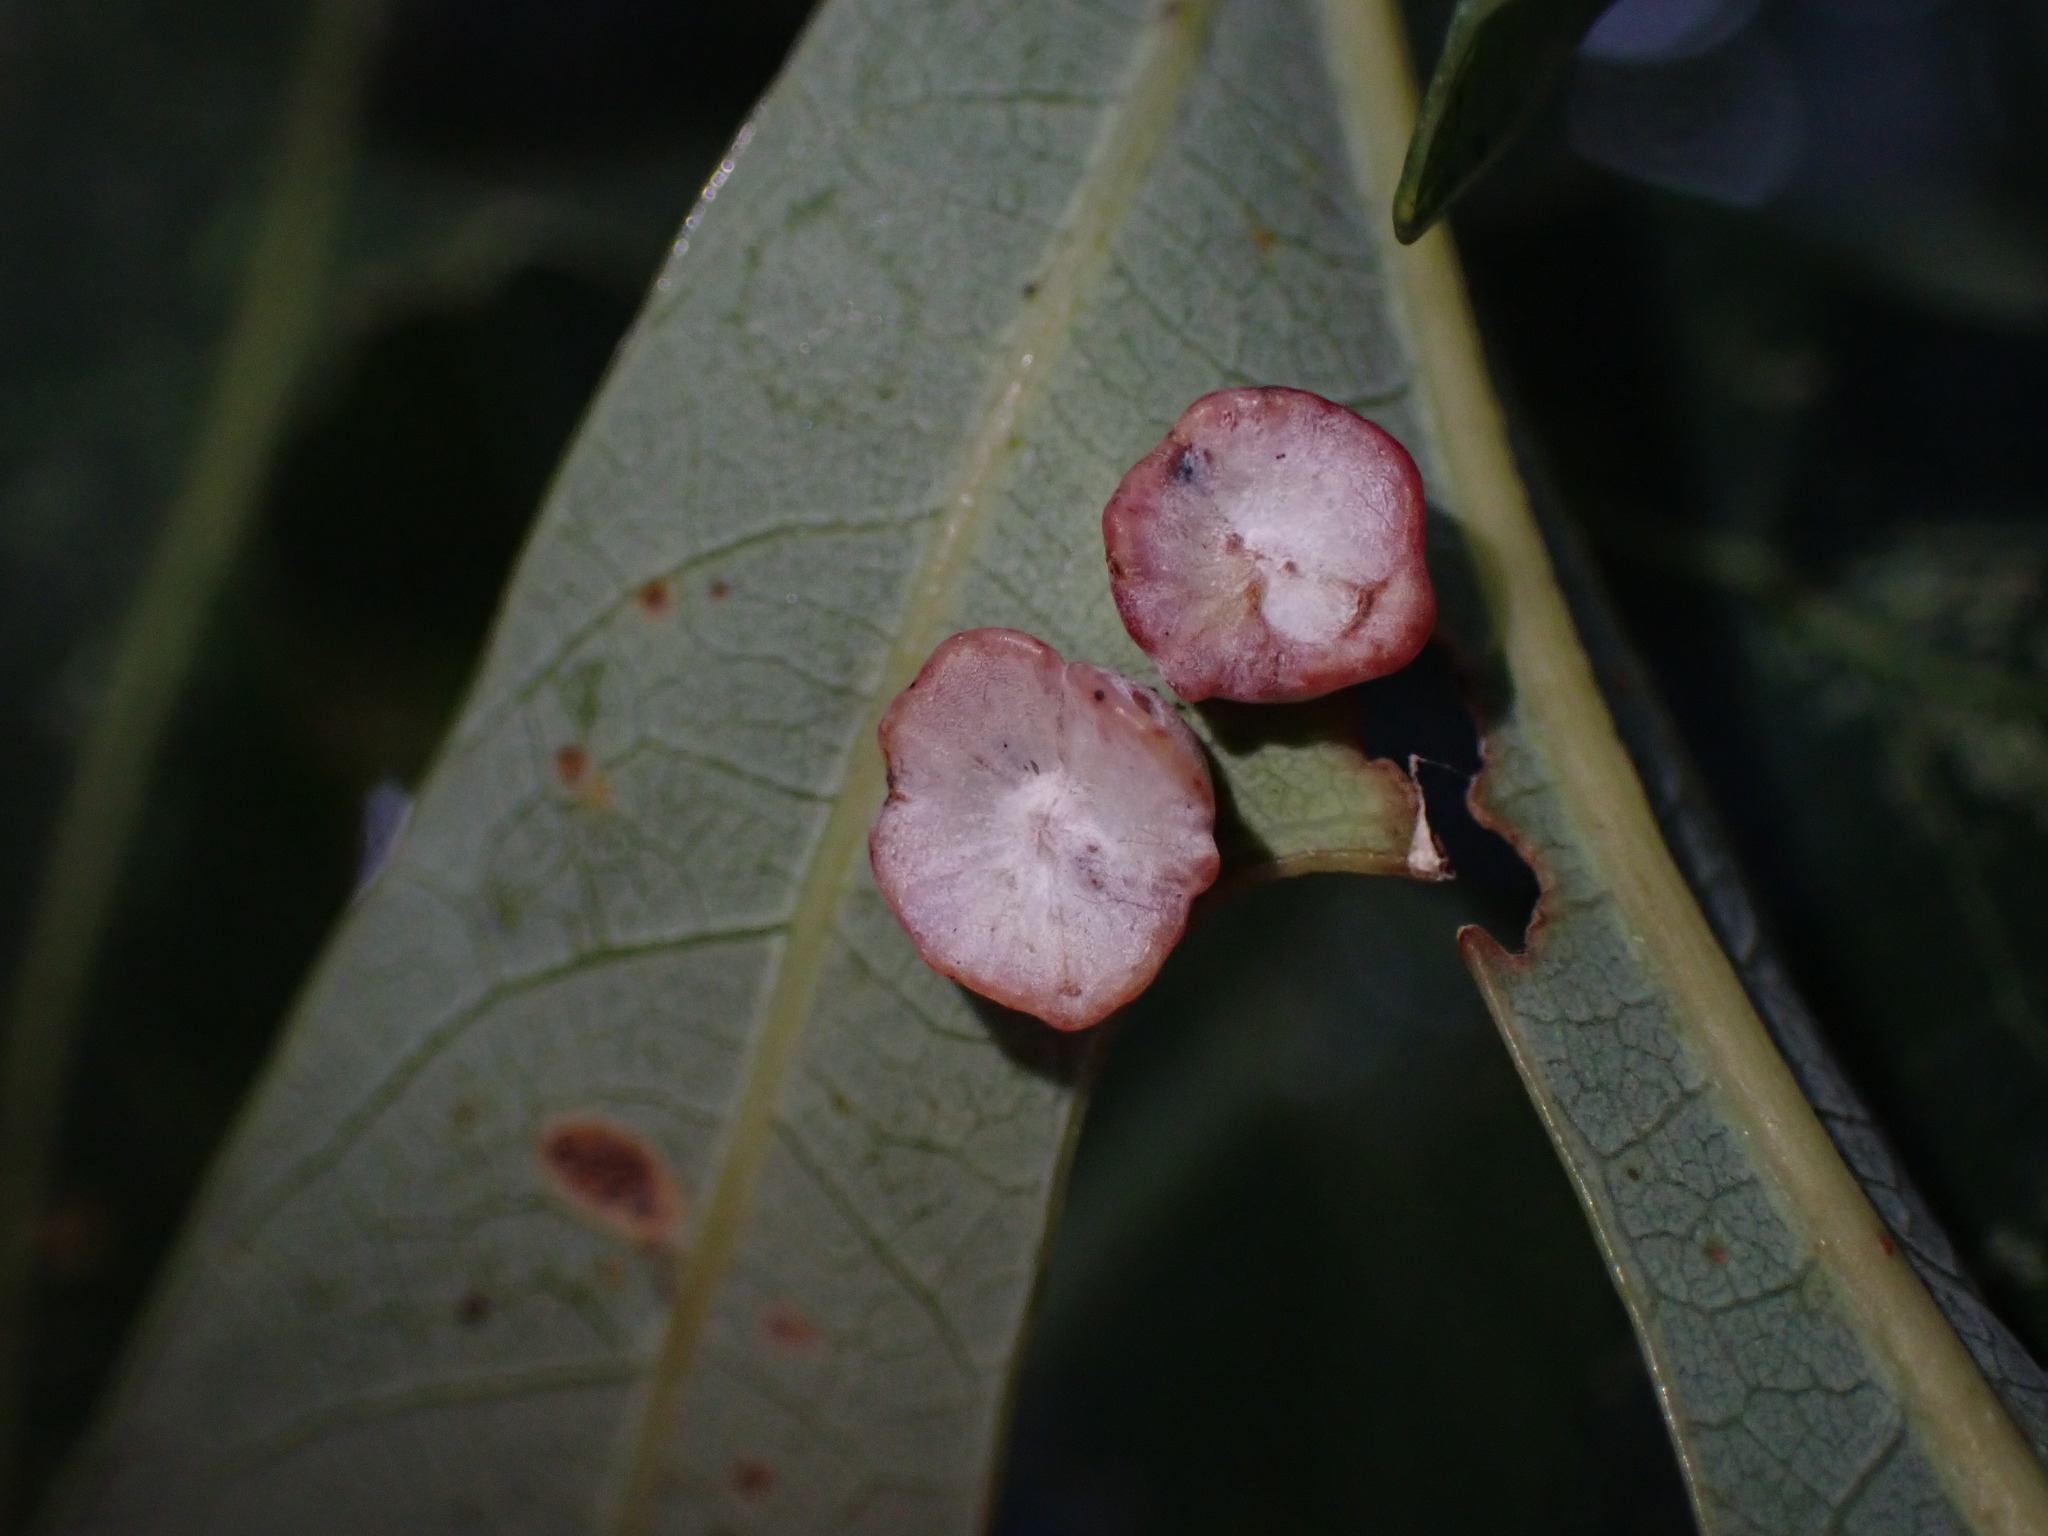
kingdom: Animalia
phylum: Arthropoda
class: Insecta
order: Hymenoptera
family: Cynipidae
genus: Phylloteras
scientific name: Phylloteras poculum
